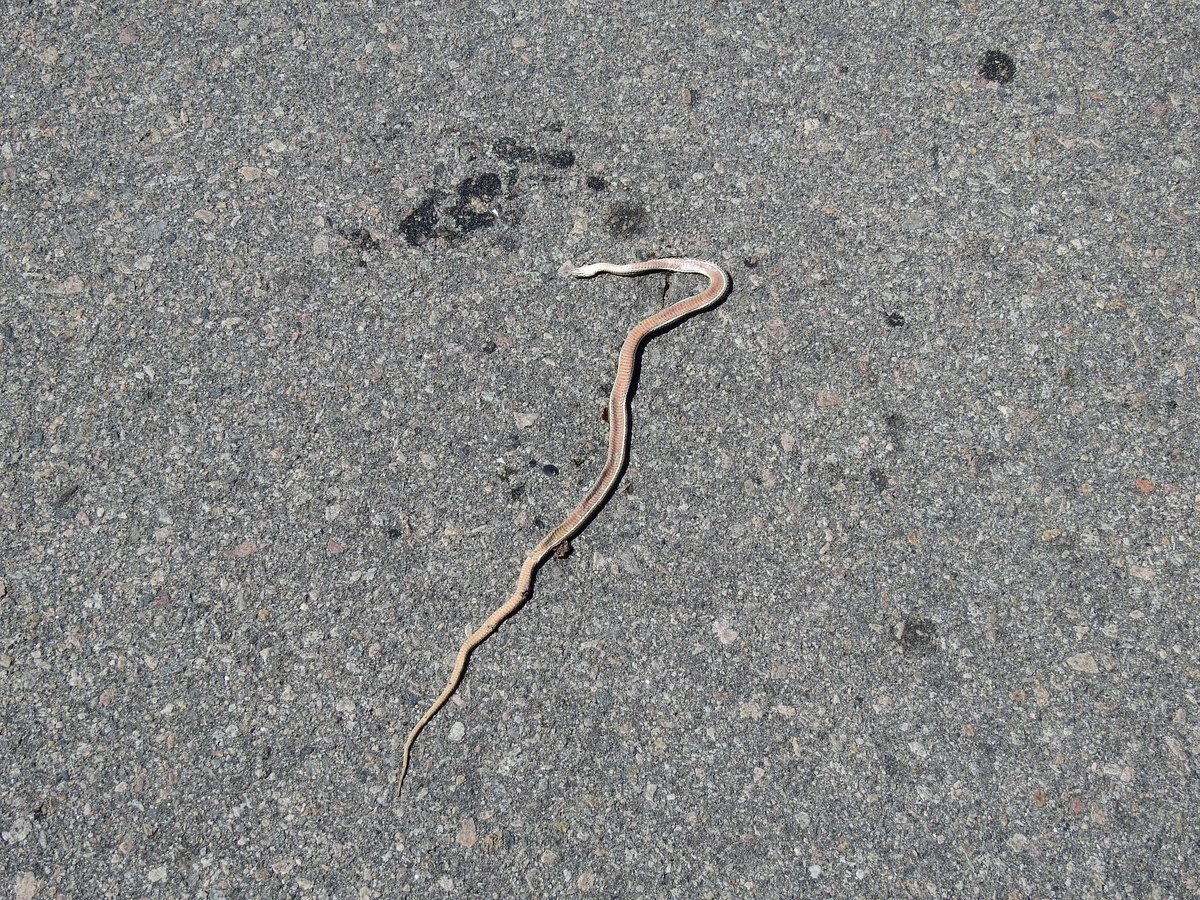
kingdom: Animalia
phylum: Chordata
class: Squamata
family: Colubridae
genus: Philodryas
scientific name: Philodryas psammophidea
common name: Günther's green racer
